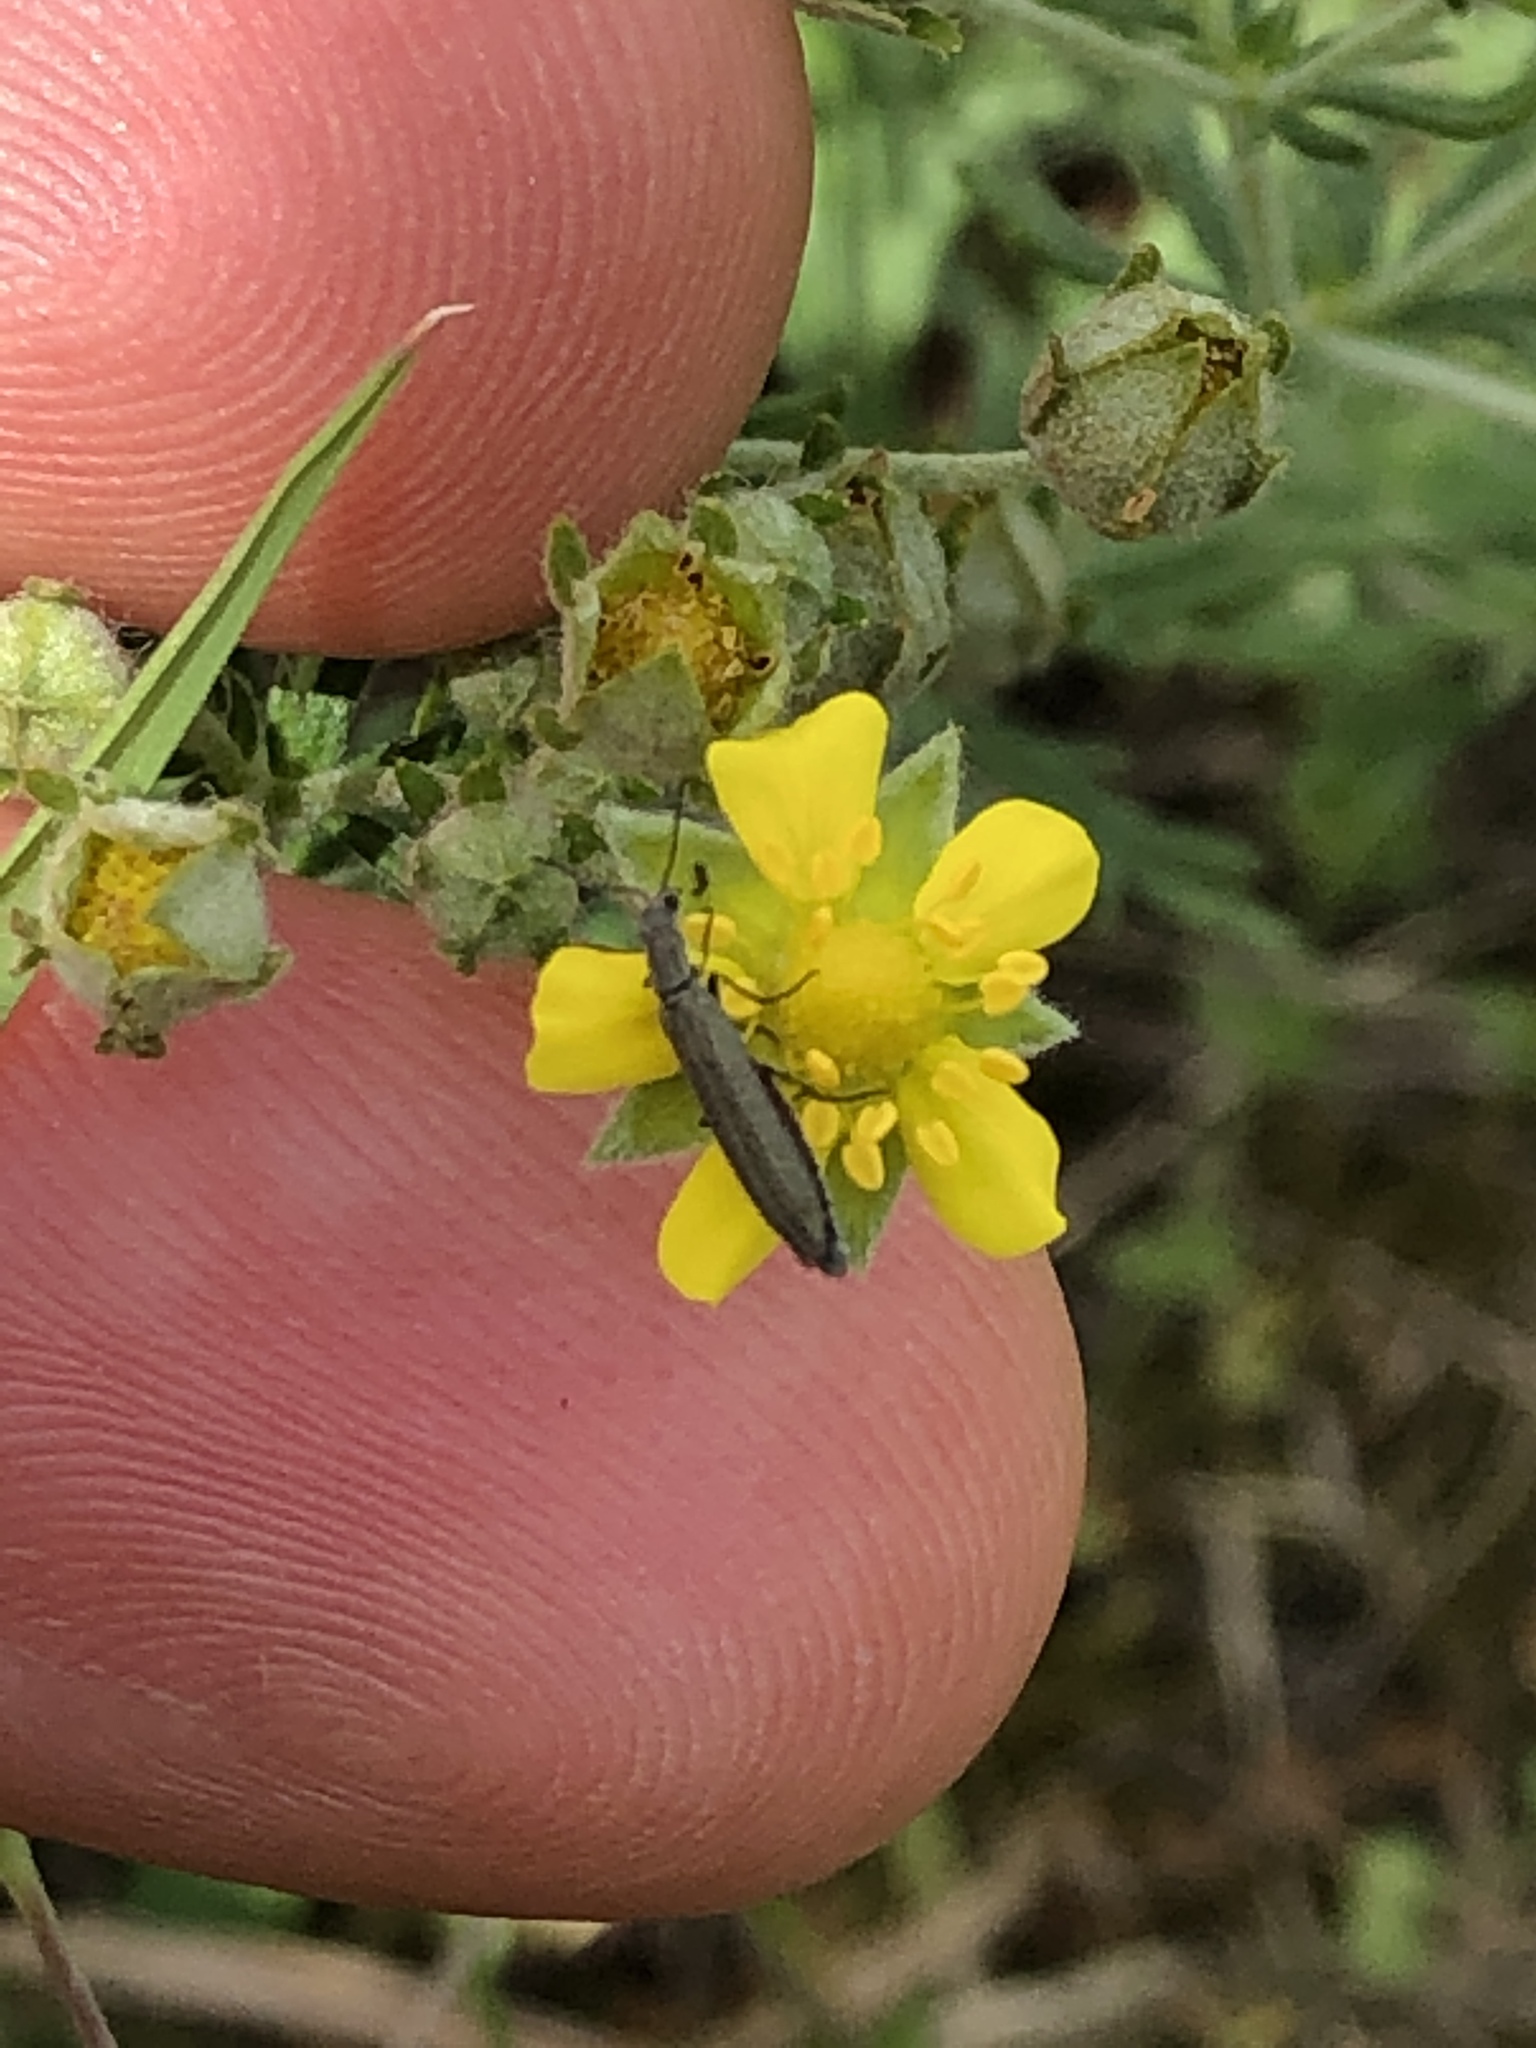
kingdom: Animalia
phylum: Arthropoda
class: Insecta
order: Coleoptera
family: Melyridae
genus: Dolichosoma
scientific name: Dolichosoma lineare
